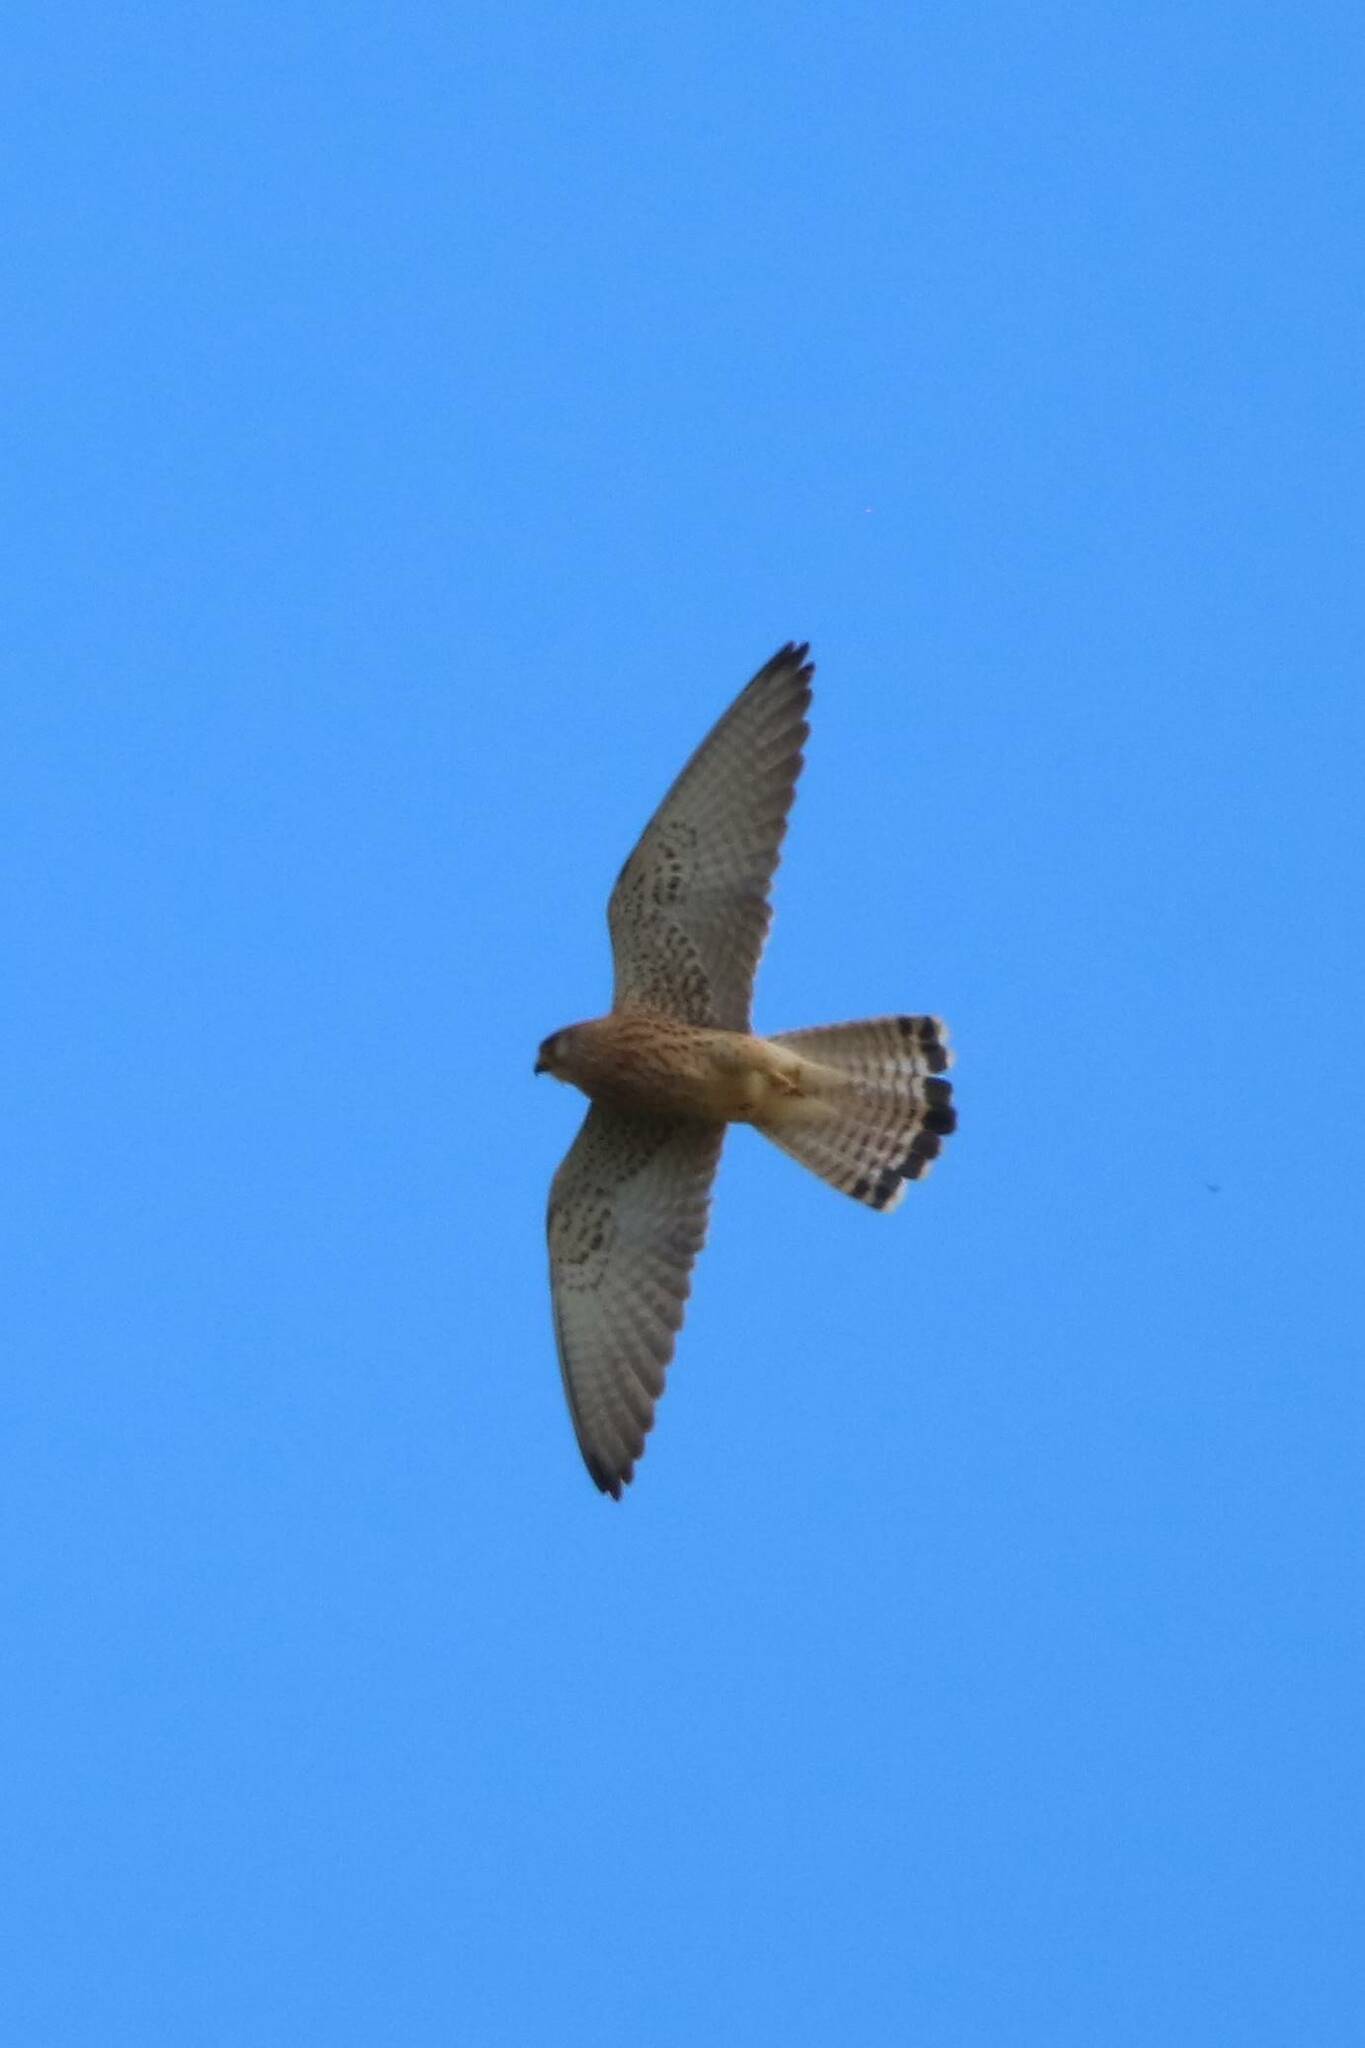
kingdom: Animalia
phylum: Chordata
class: Aves
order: Falconiformes
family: Falconidae
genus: Falco
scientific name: Falco naumanni
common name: Lesser kestrel
